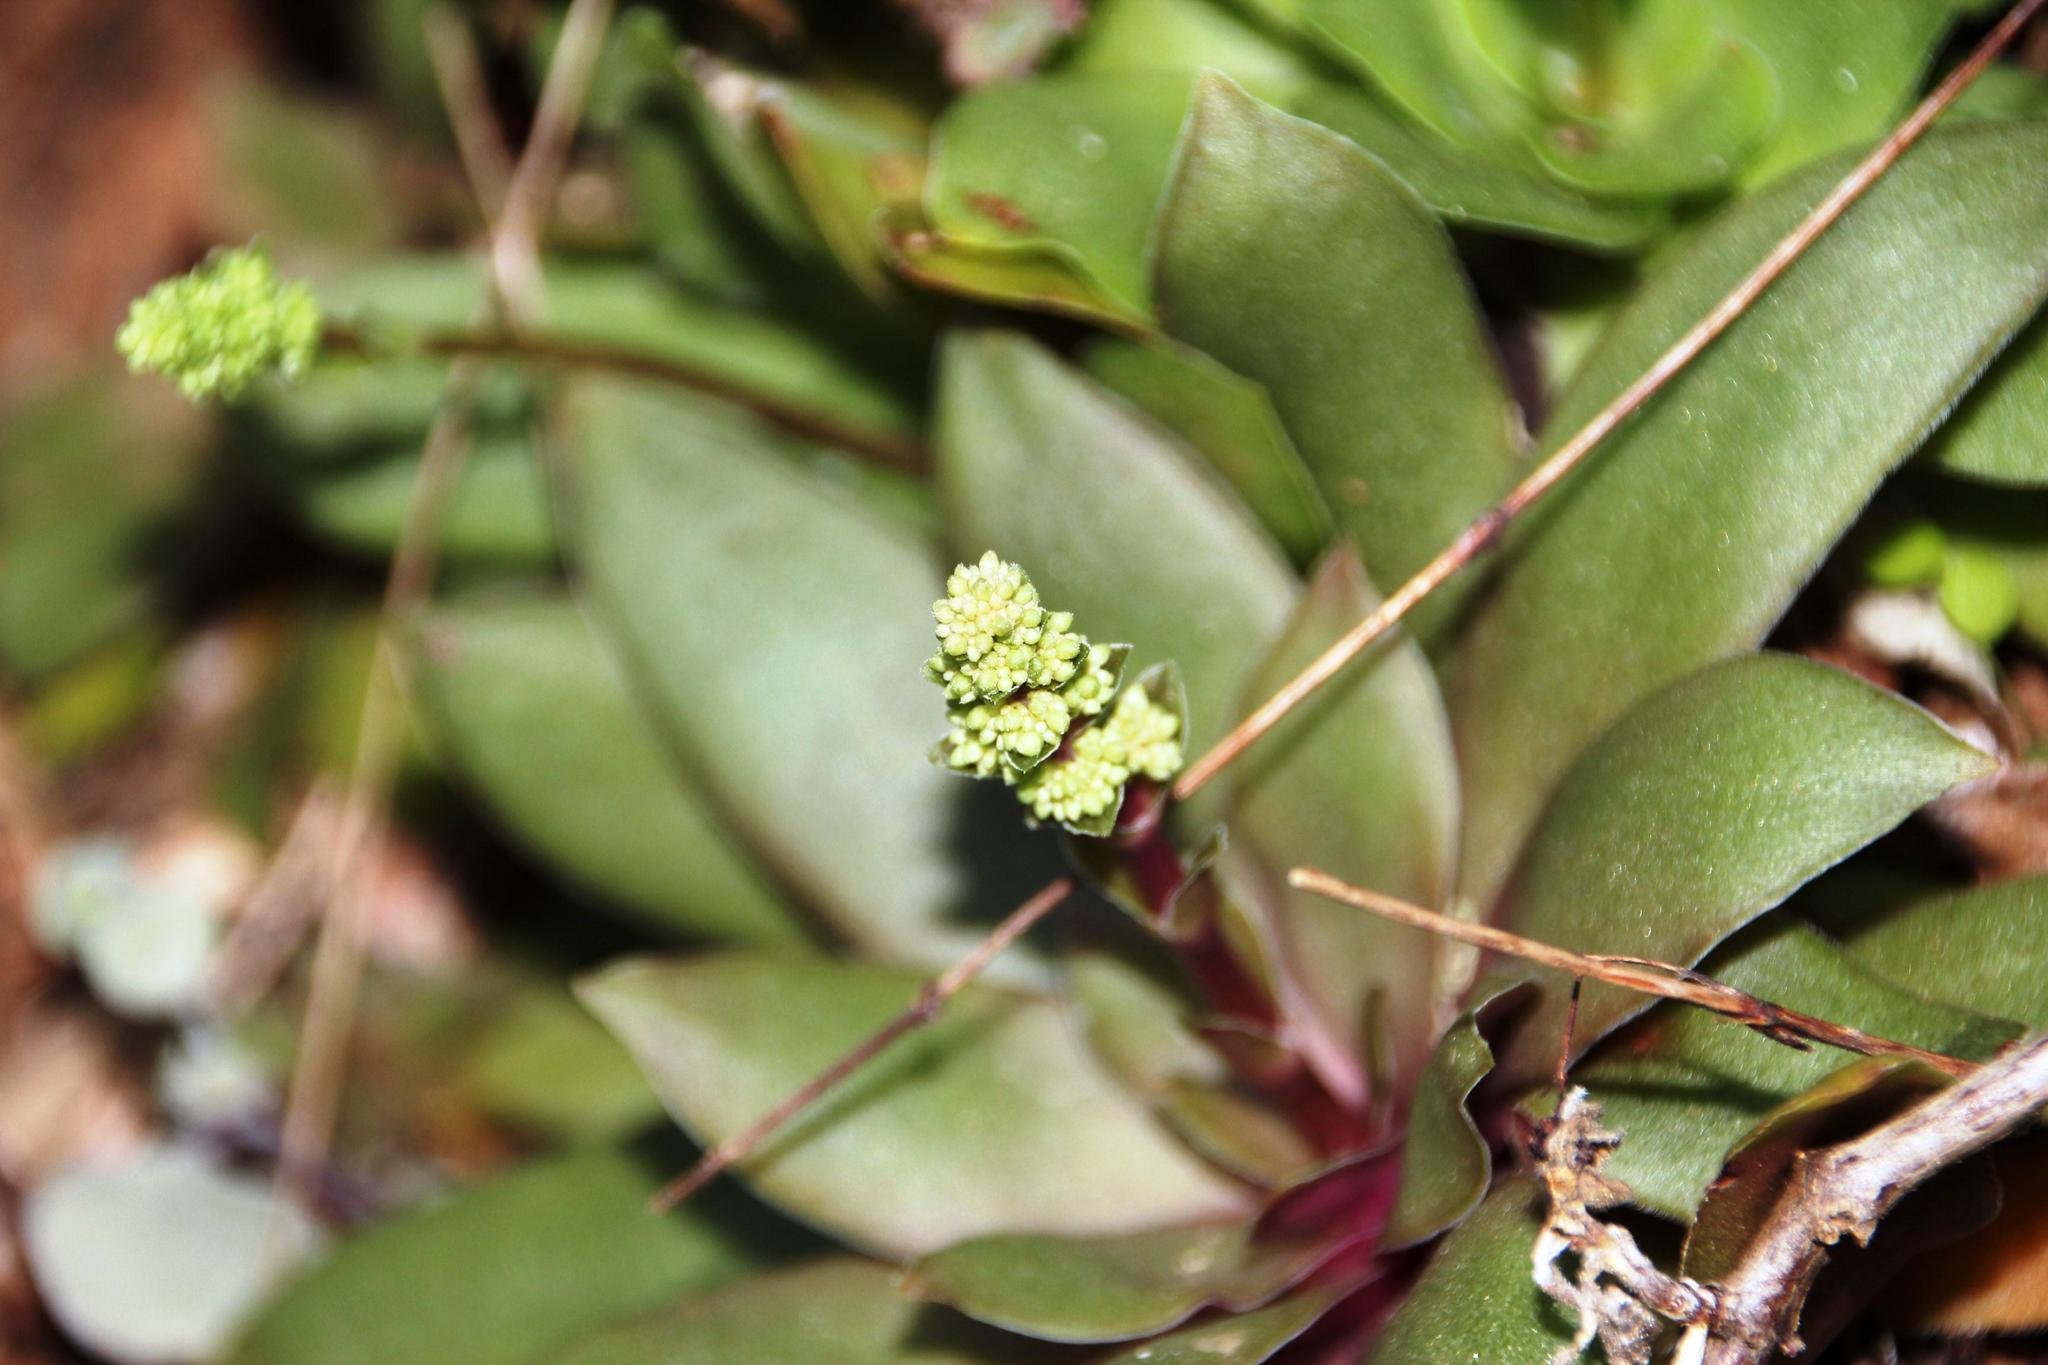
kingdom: Plantae
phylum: Tracheophyta
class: Magnoliopsida
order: Saxifragales
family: Crassulaceae
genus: Crassula
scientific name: Crassula orbicularis
